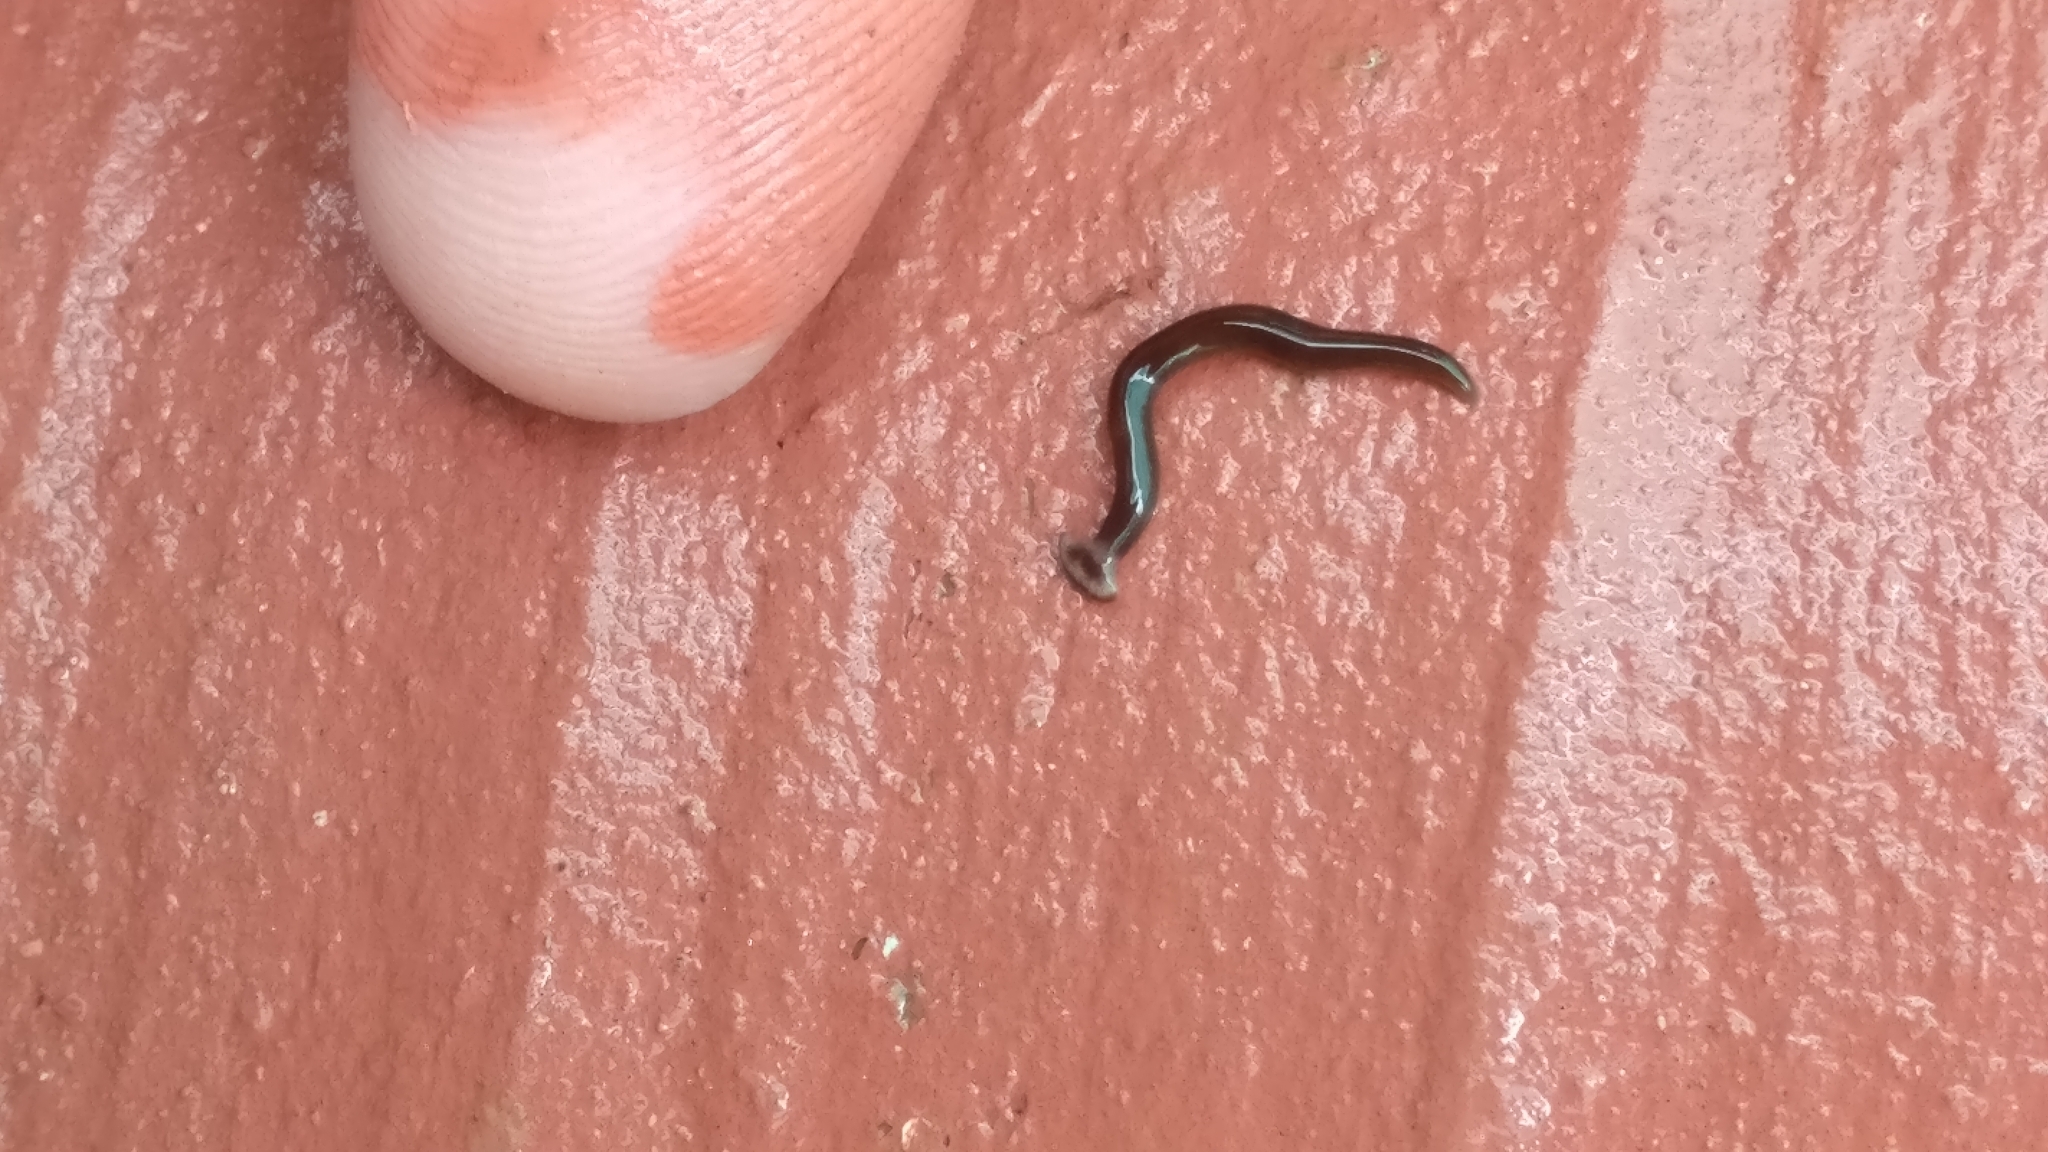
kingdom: Animalia
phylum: Platyhelminthes
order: Tricladida
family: Geoplanidae
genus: Bipalium
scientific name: Bipalium univittatum
